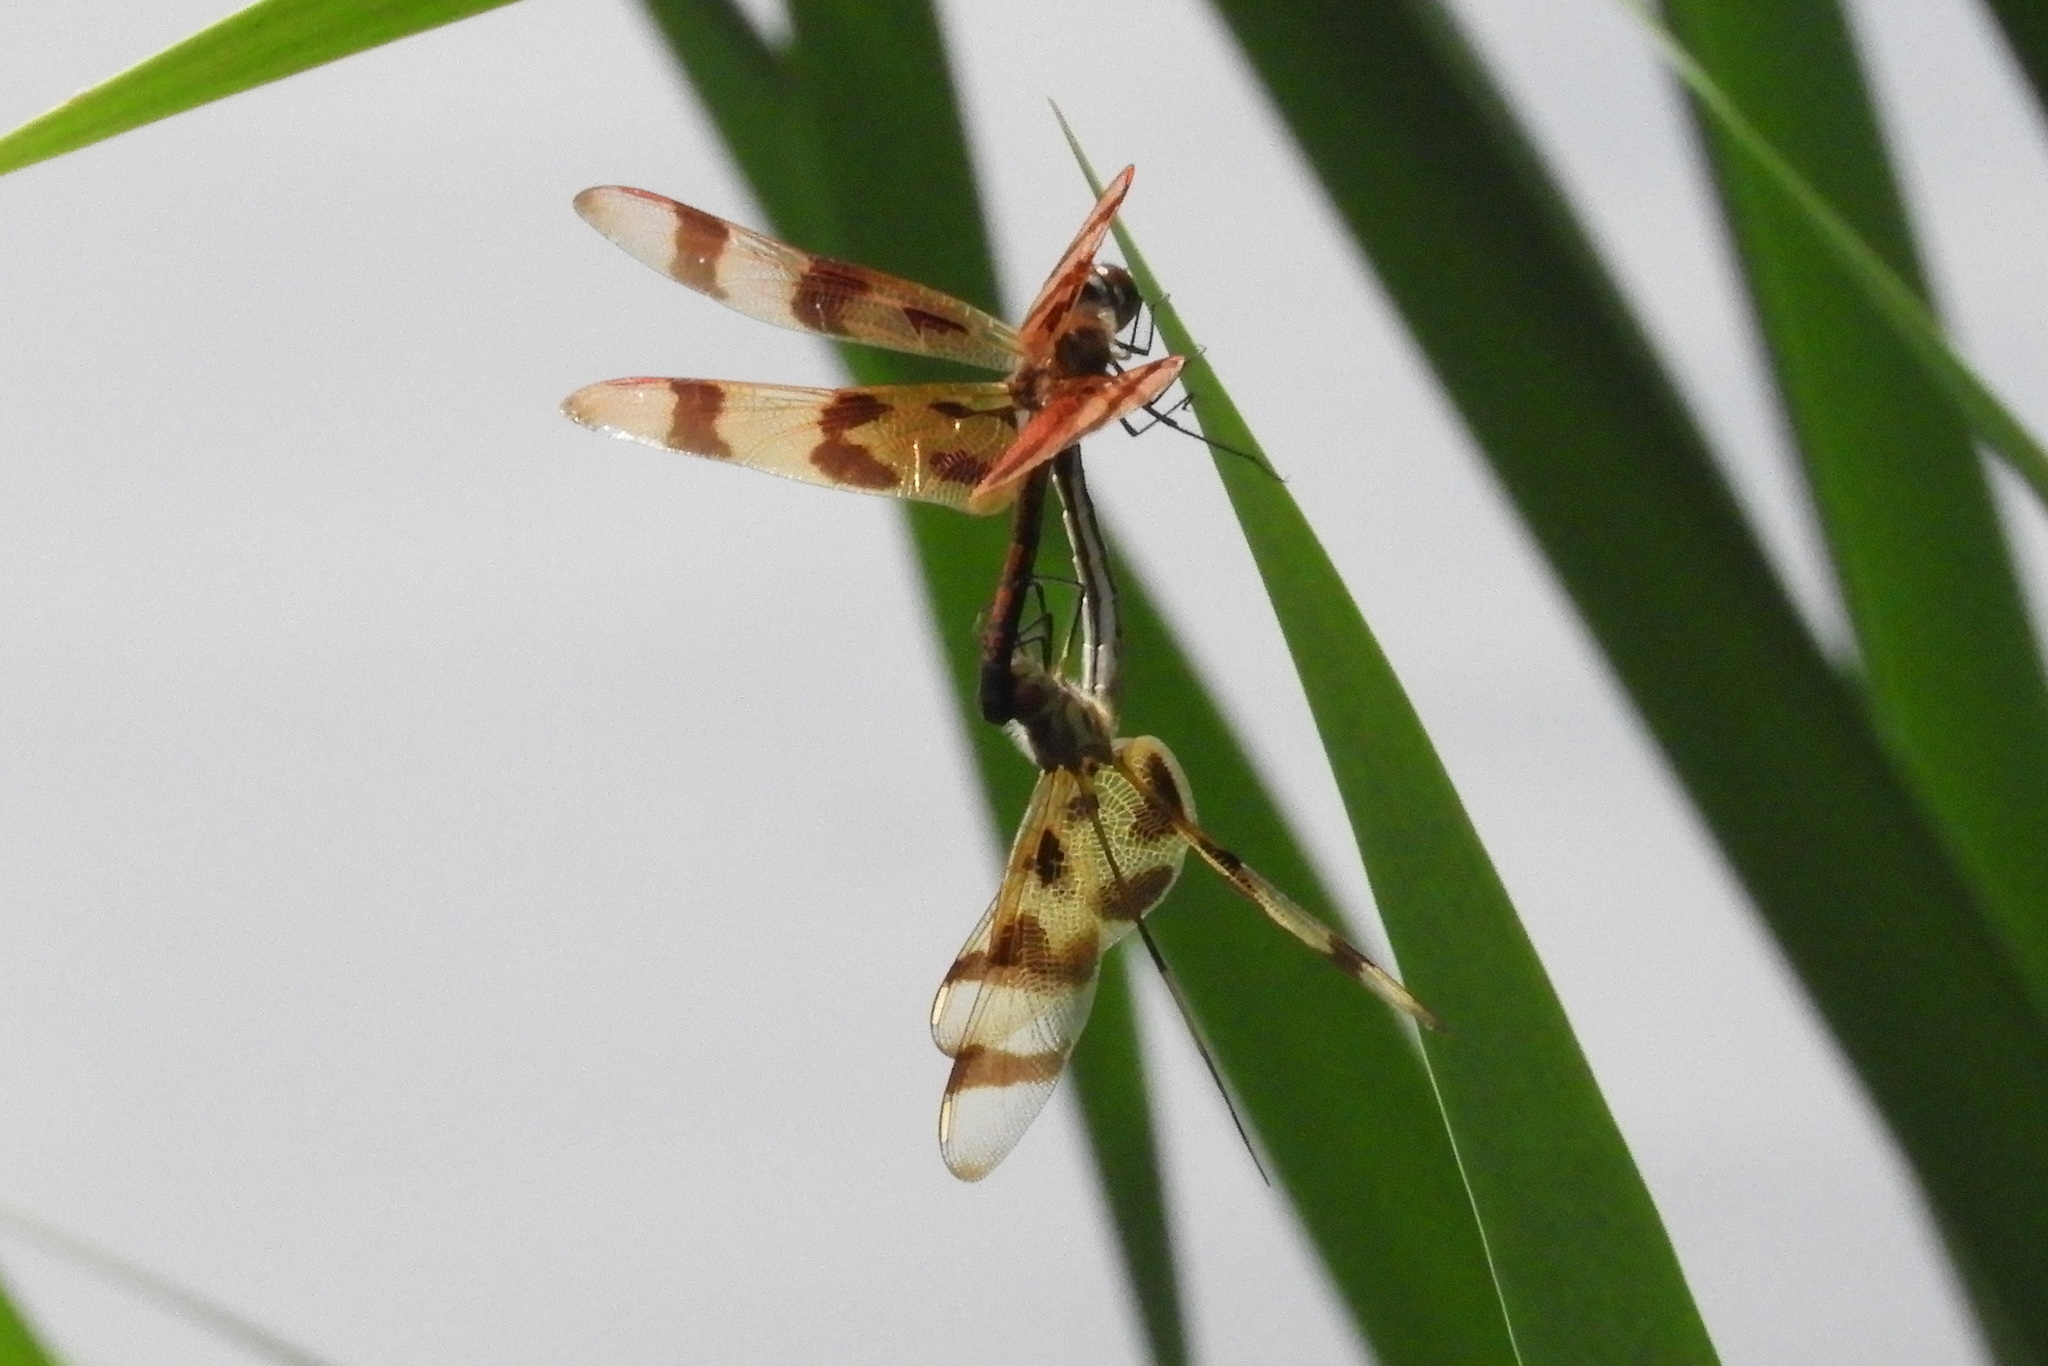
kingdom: Animalia
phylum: Arthropoda
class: Insecta
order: Odonata
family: Libellulidae
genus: Celithemis
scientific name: Celithemis eponina
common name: Halloween pennant
